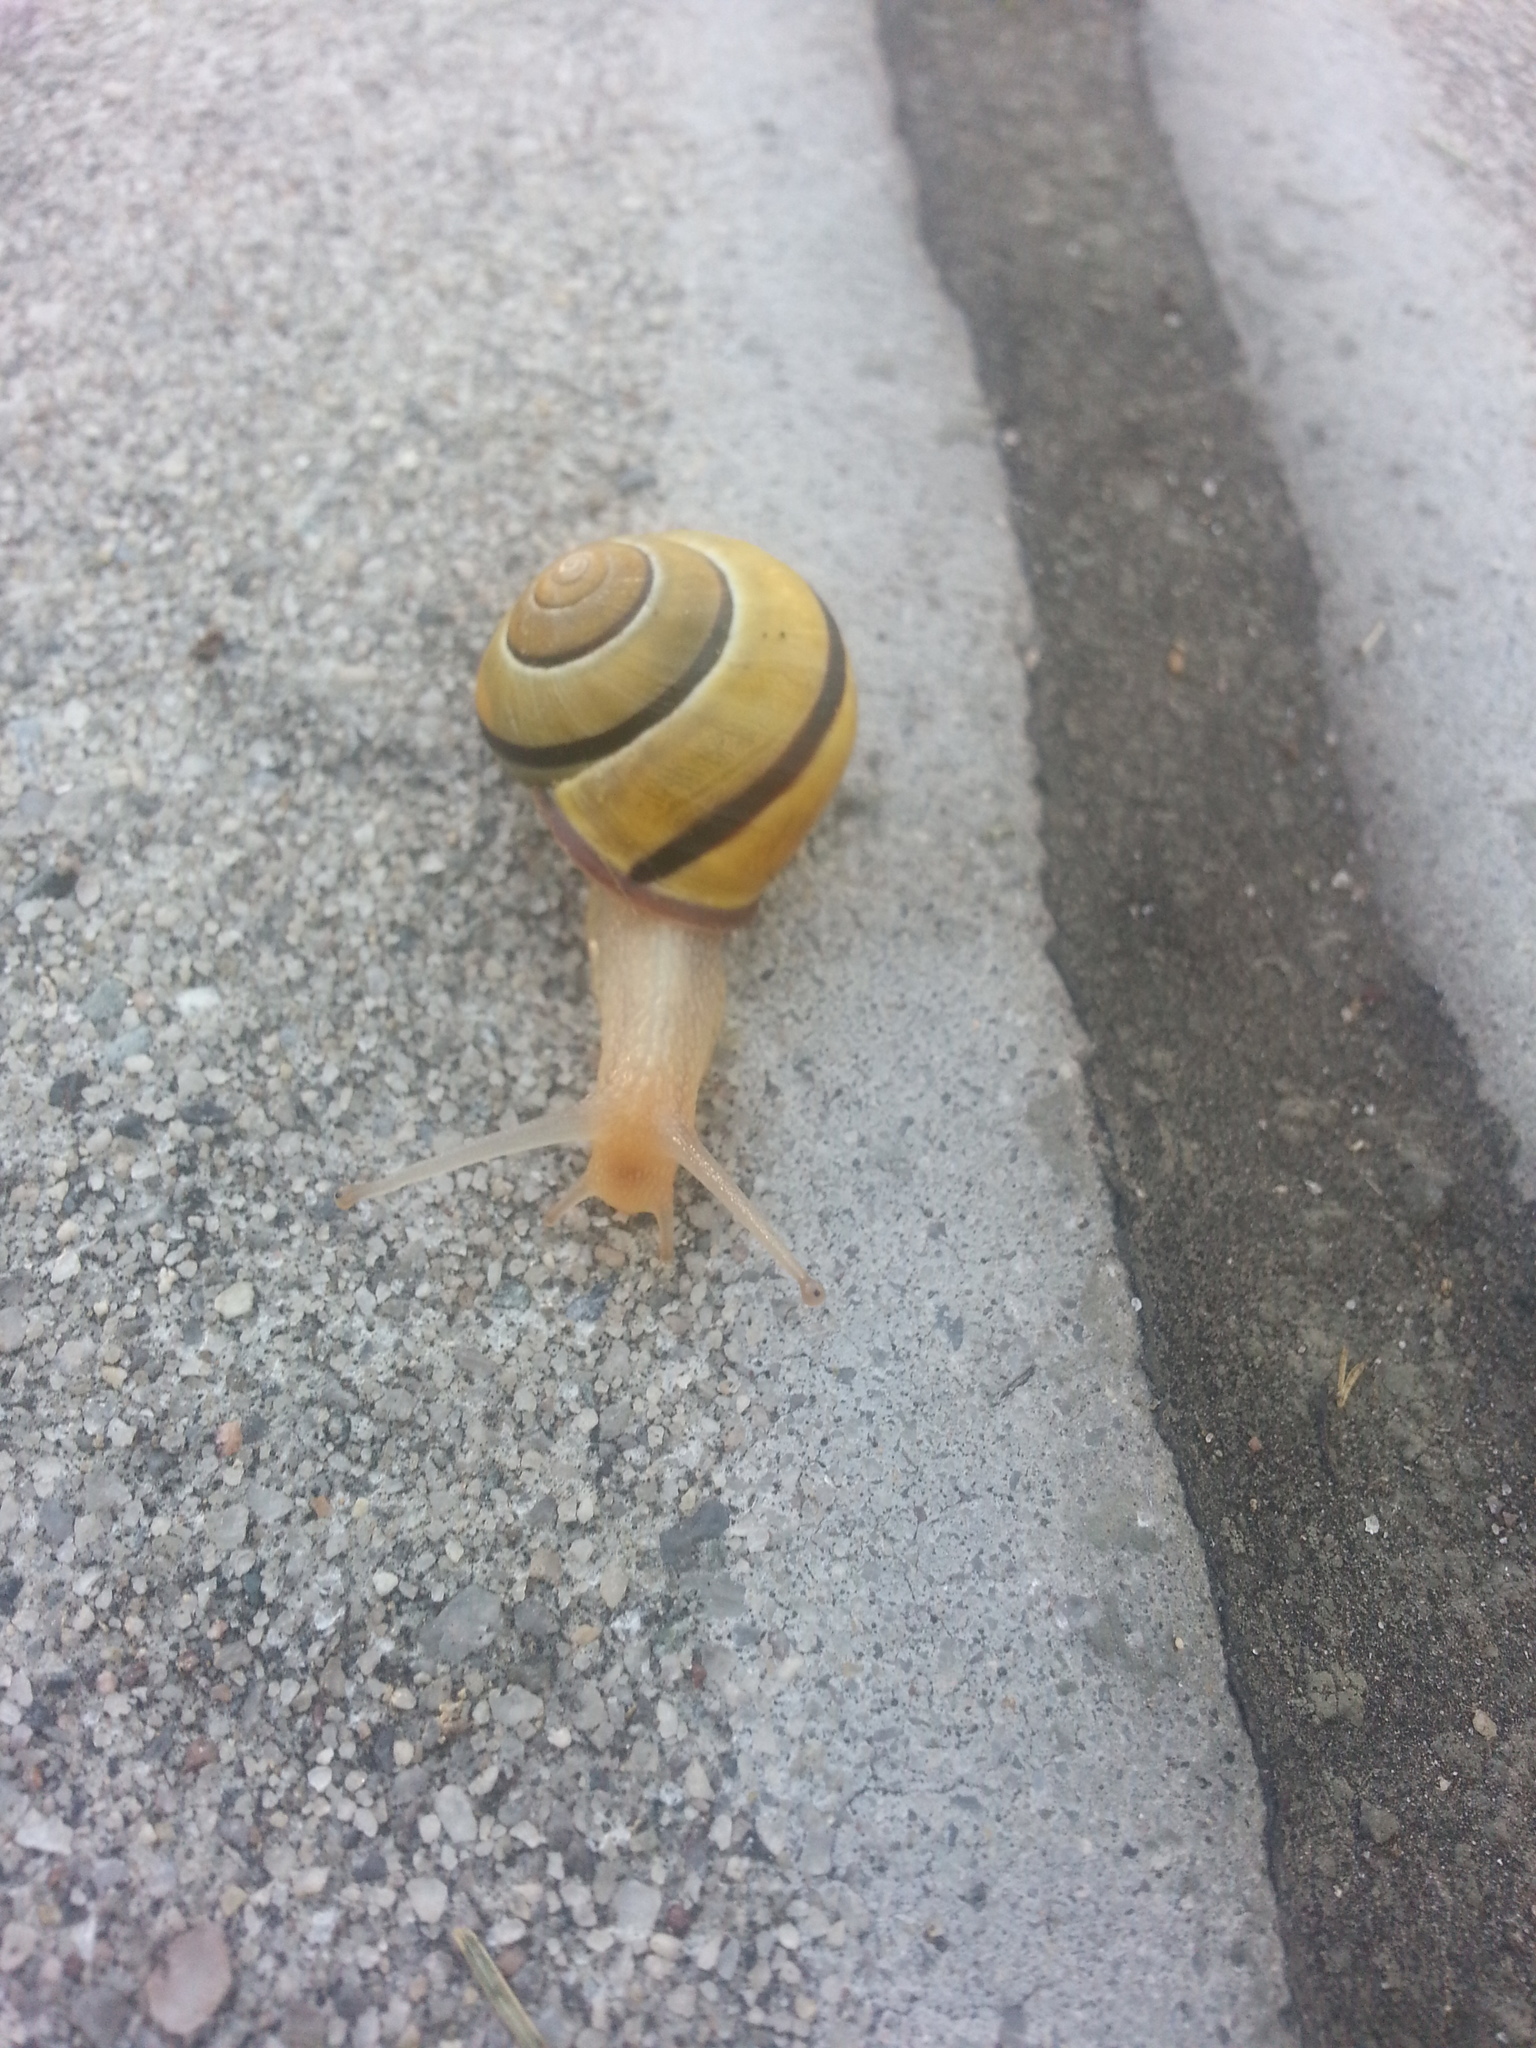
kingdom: Animalia
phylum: Mollusca
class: Gastropoda
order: Stylommatophora
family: Helicidae
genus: Cepaea
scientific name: Cepaea nemoralis
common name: Grovesnail
